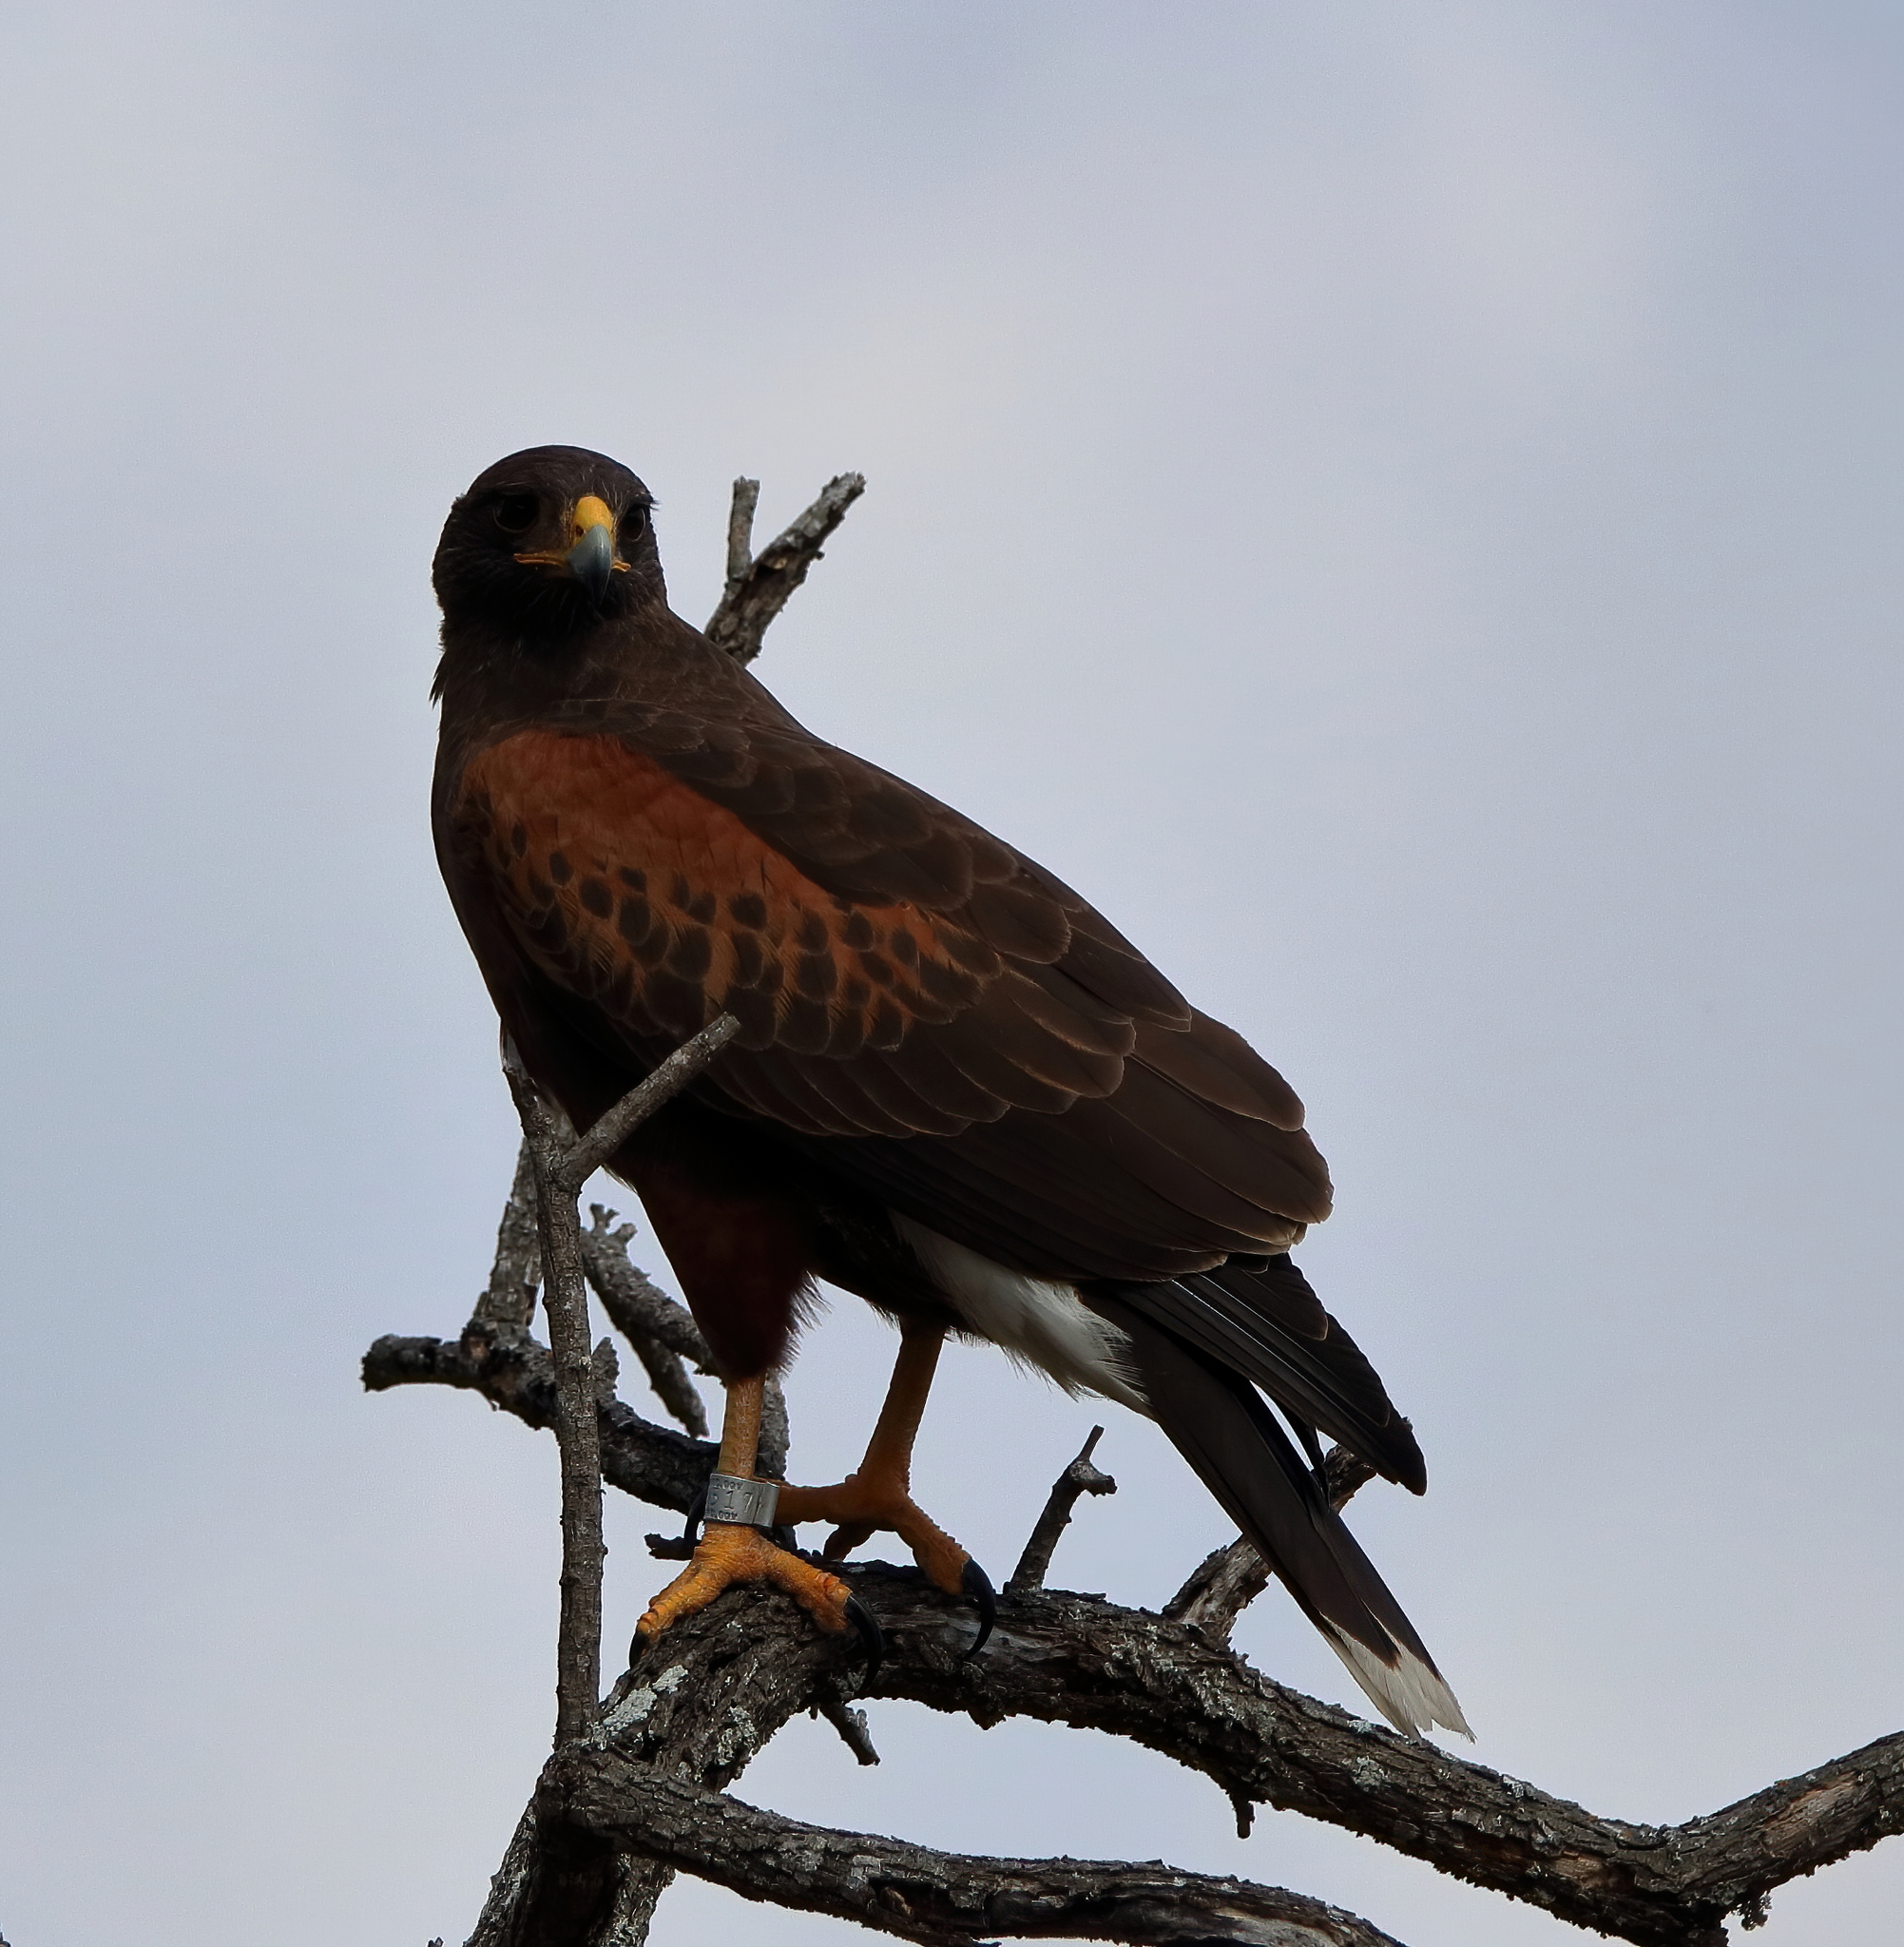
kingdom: Animalia
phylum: Chordata
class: Aves
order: Accipitriformes
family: Accipitridae
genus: Parabuteo
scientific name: Parabuteo unicinctus
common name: Harris's hawk
